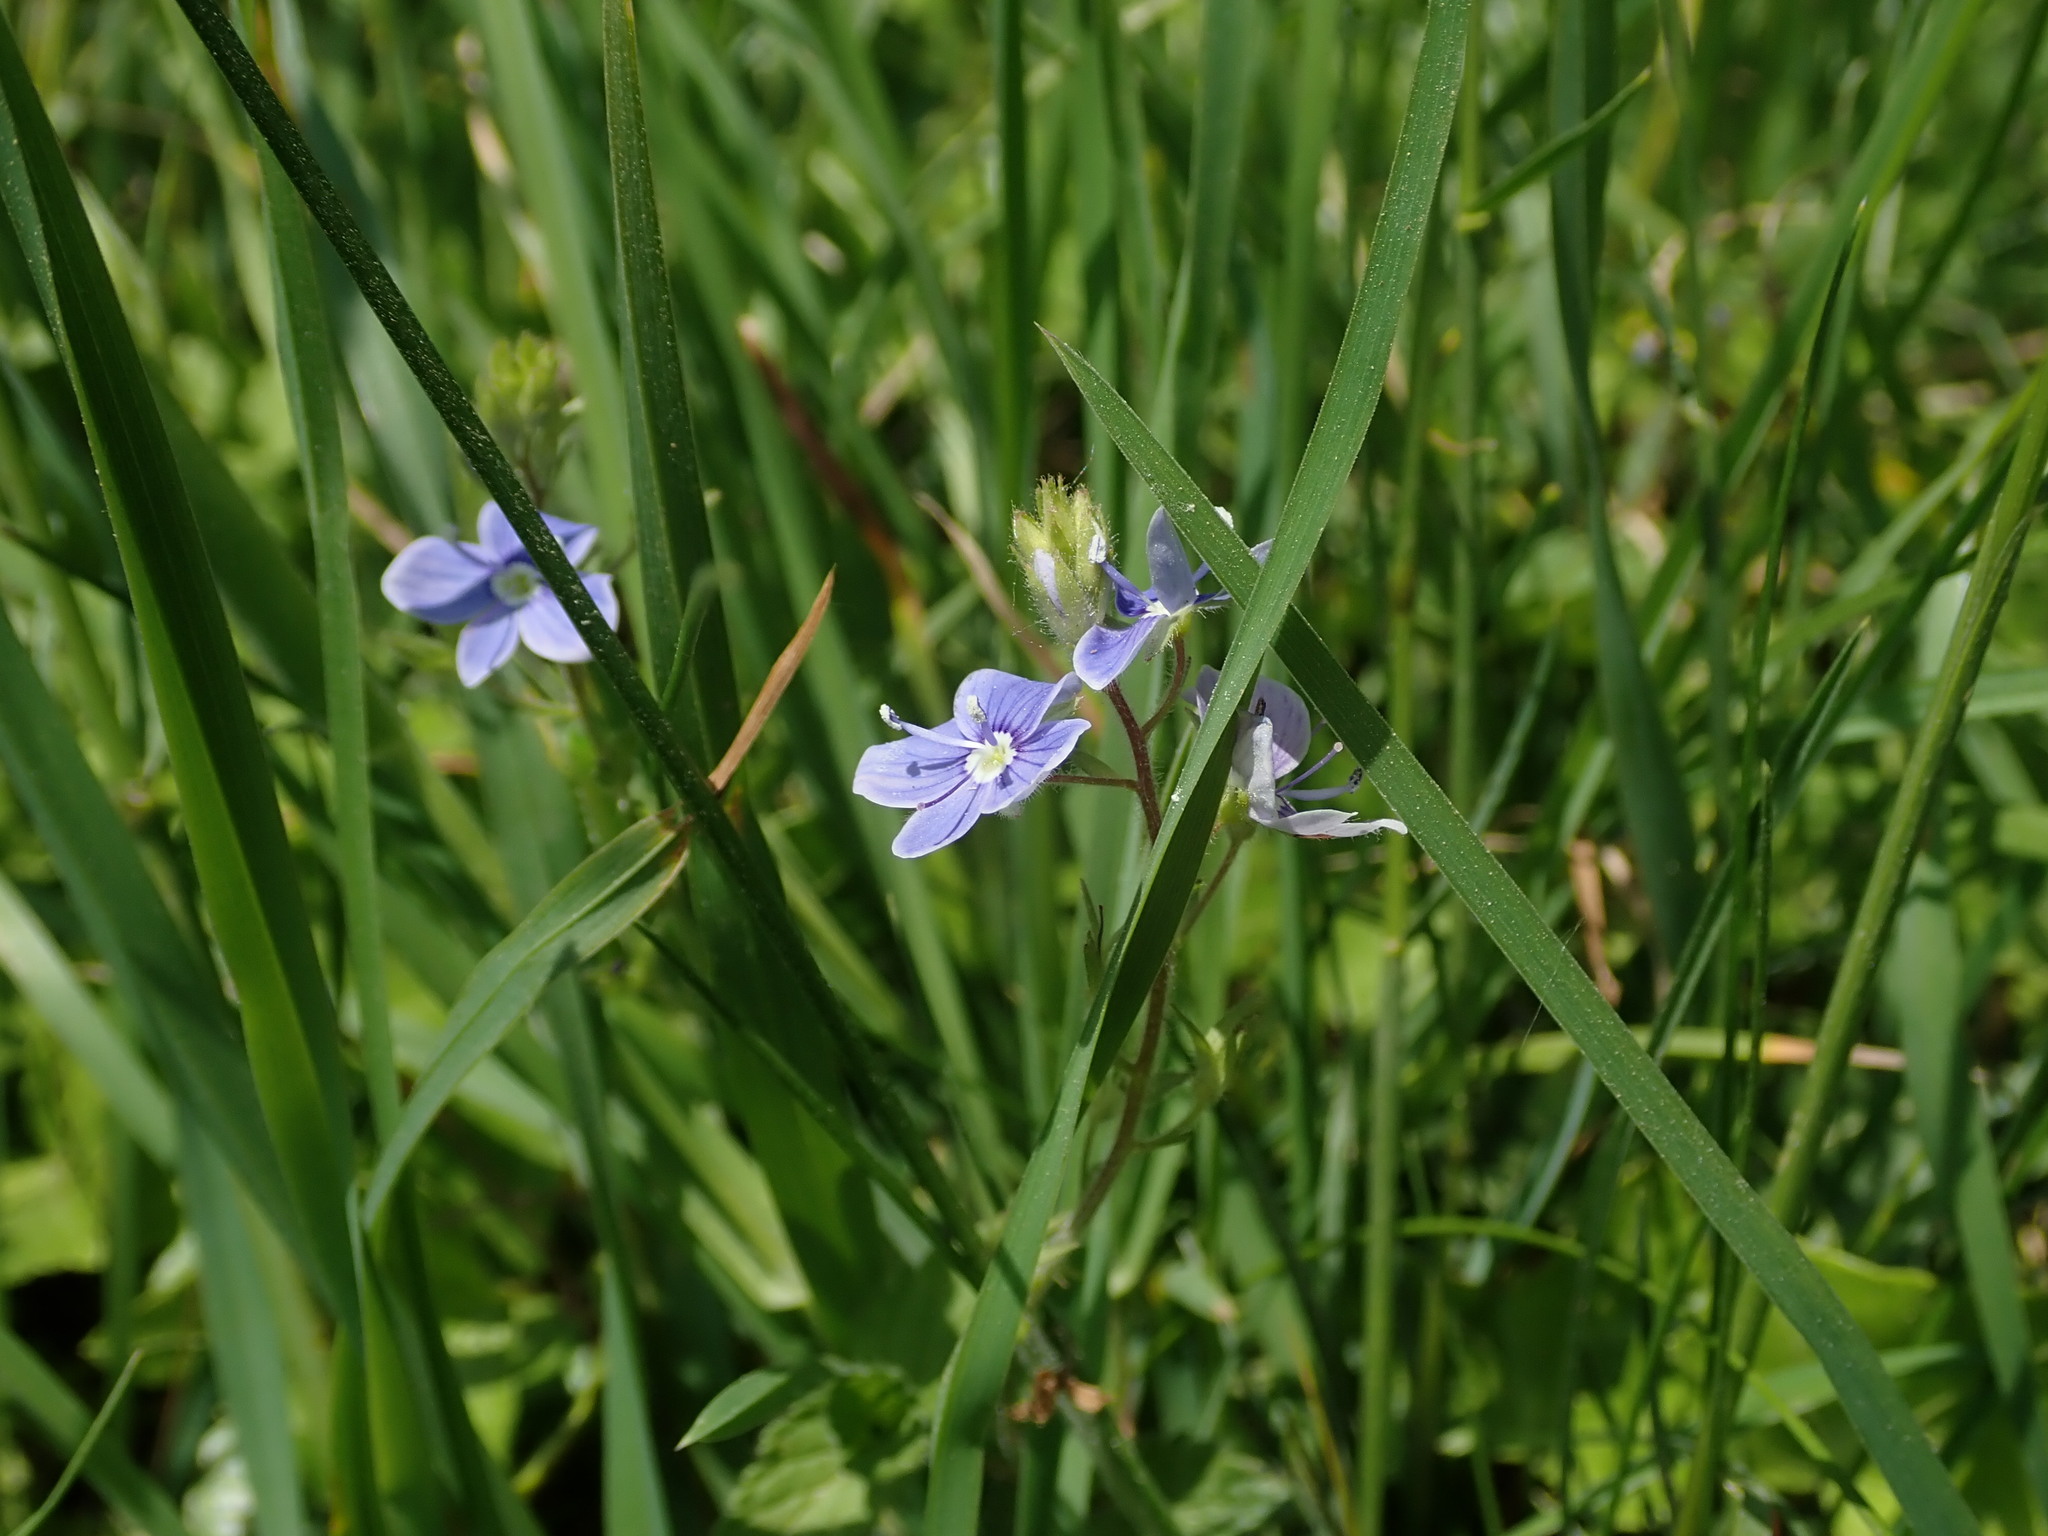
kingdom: Plantae
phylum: Tracheophyta
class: Magnoliopsida
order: Lamiales
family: Plantaginaceae
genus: Veronica
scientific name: Veronica chamaedrys
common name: Germander speedwell
